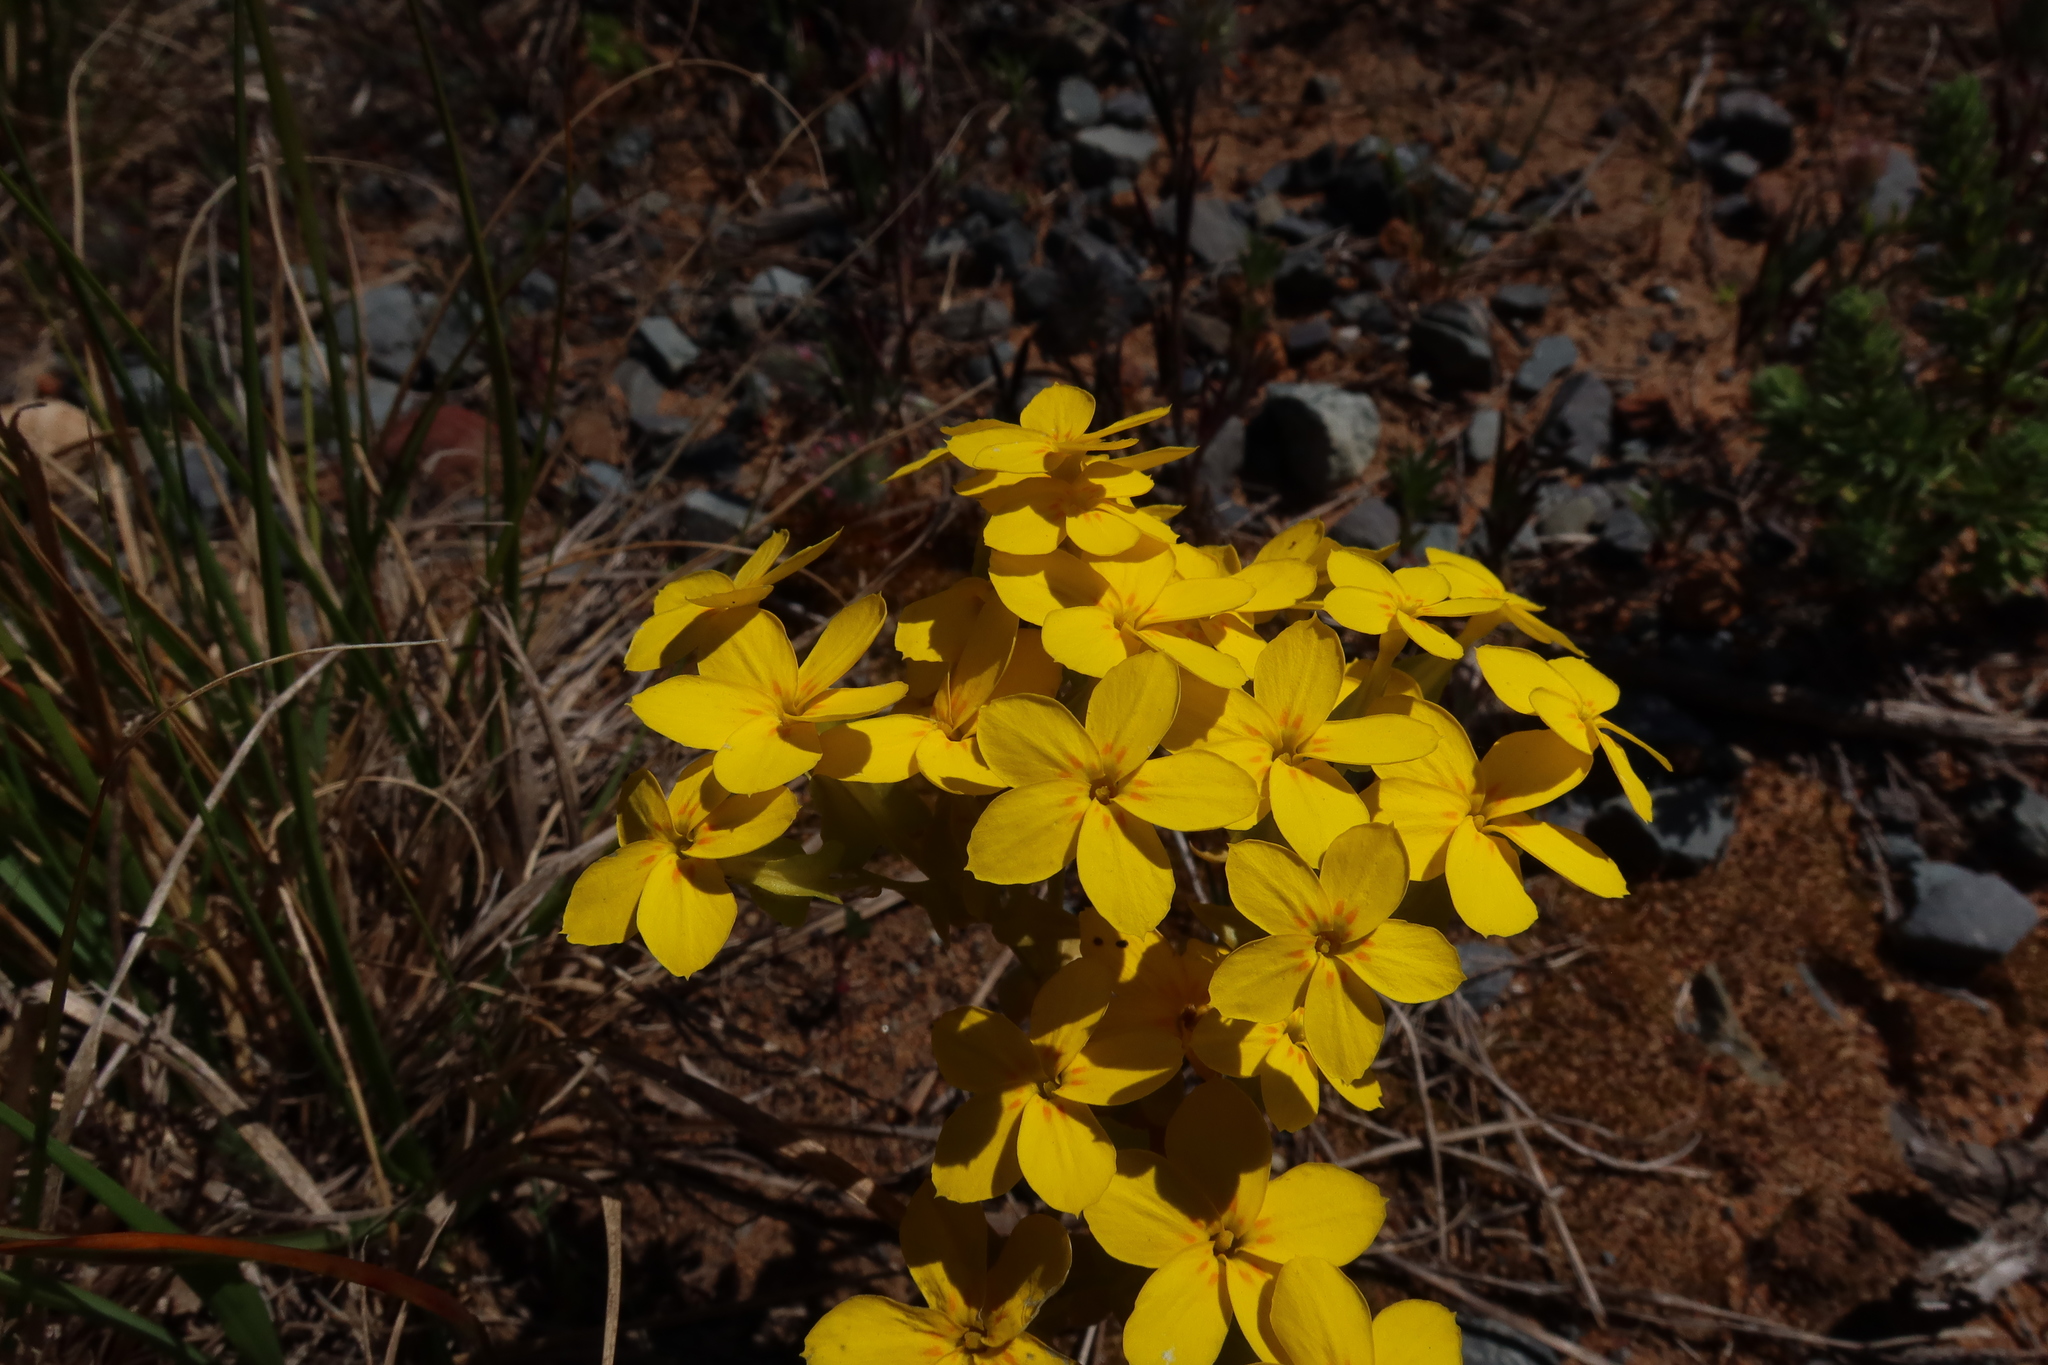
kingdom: Plantae
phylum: Tracheophyta
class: Magnoliopsida
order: Gentianales
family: Gentianaceae
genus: Sebaea
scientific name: Sebaea exacoides
